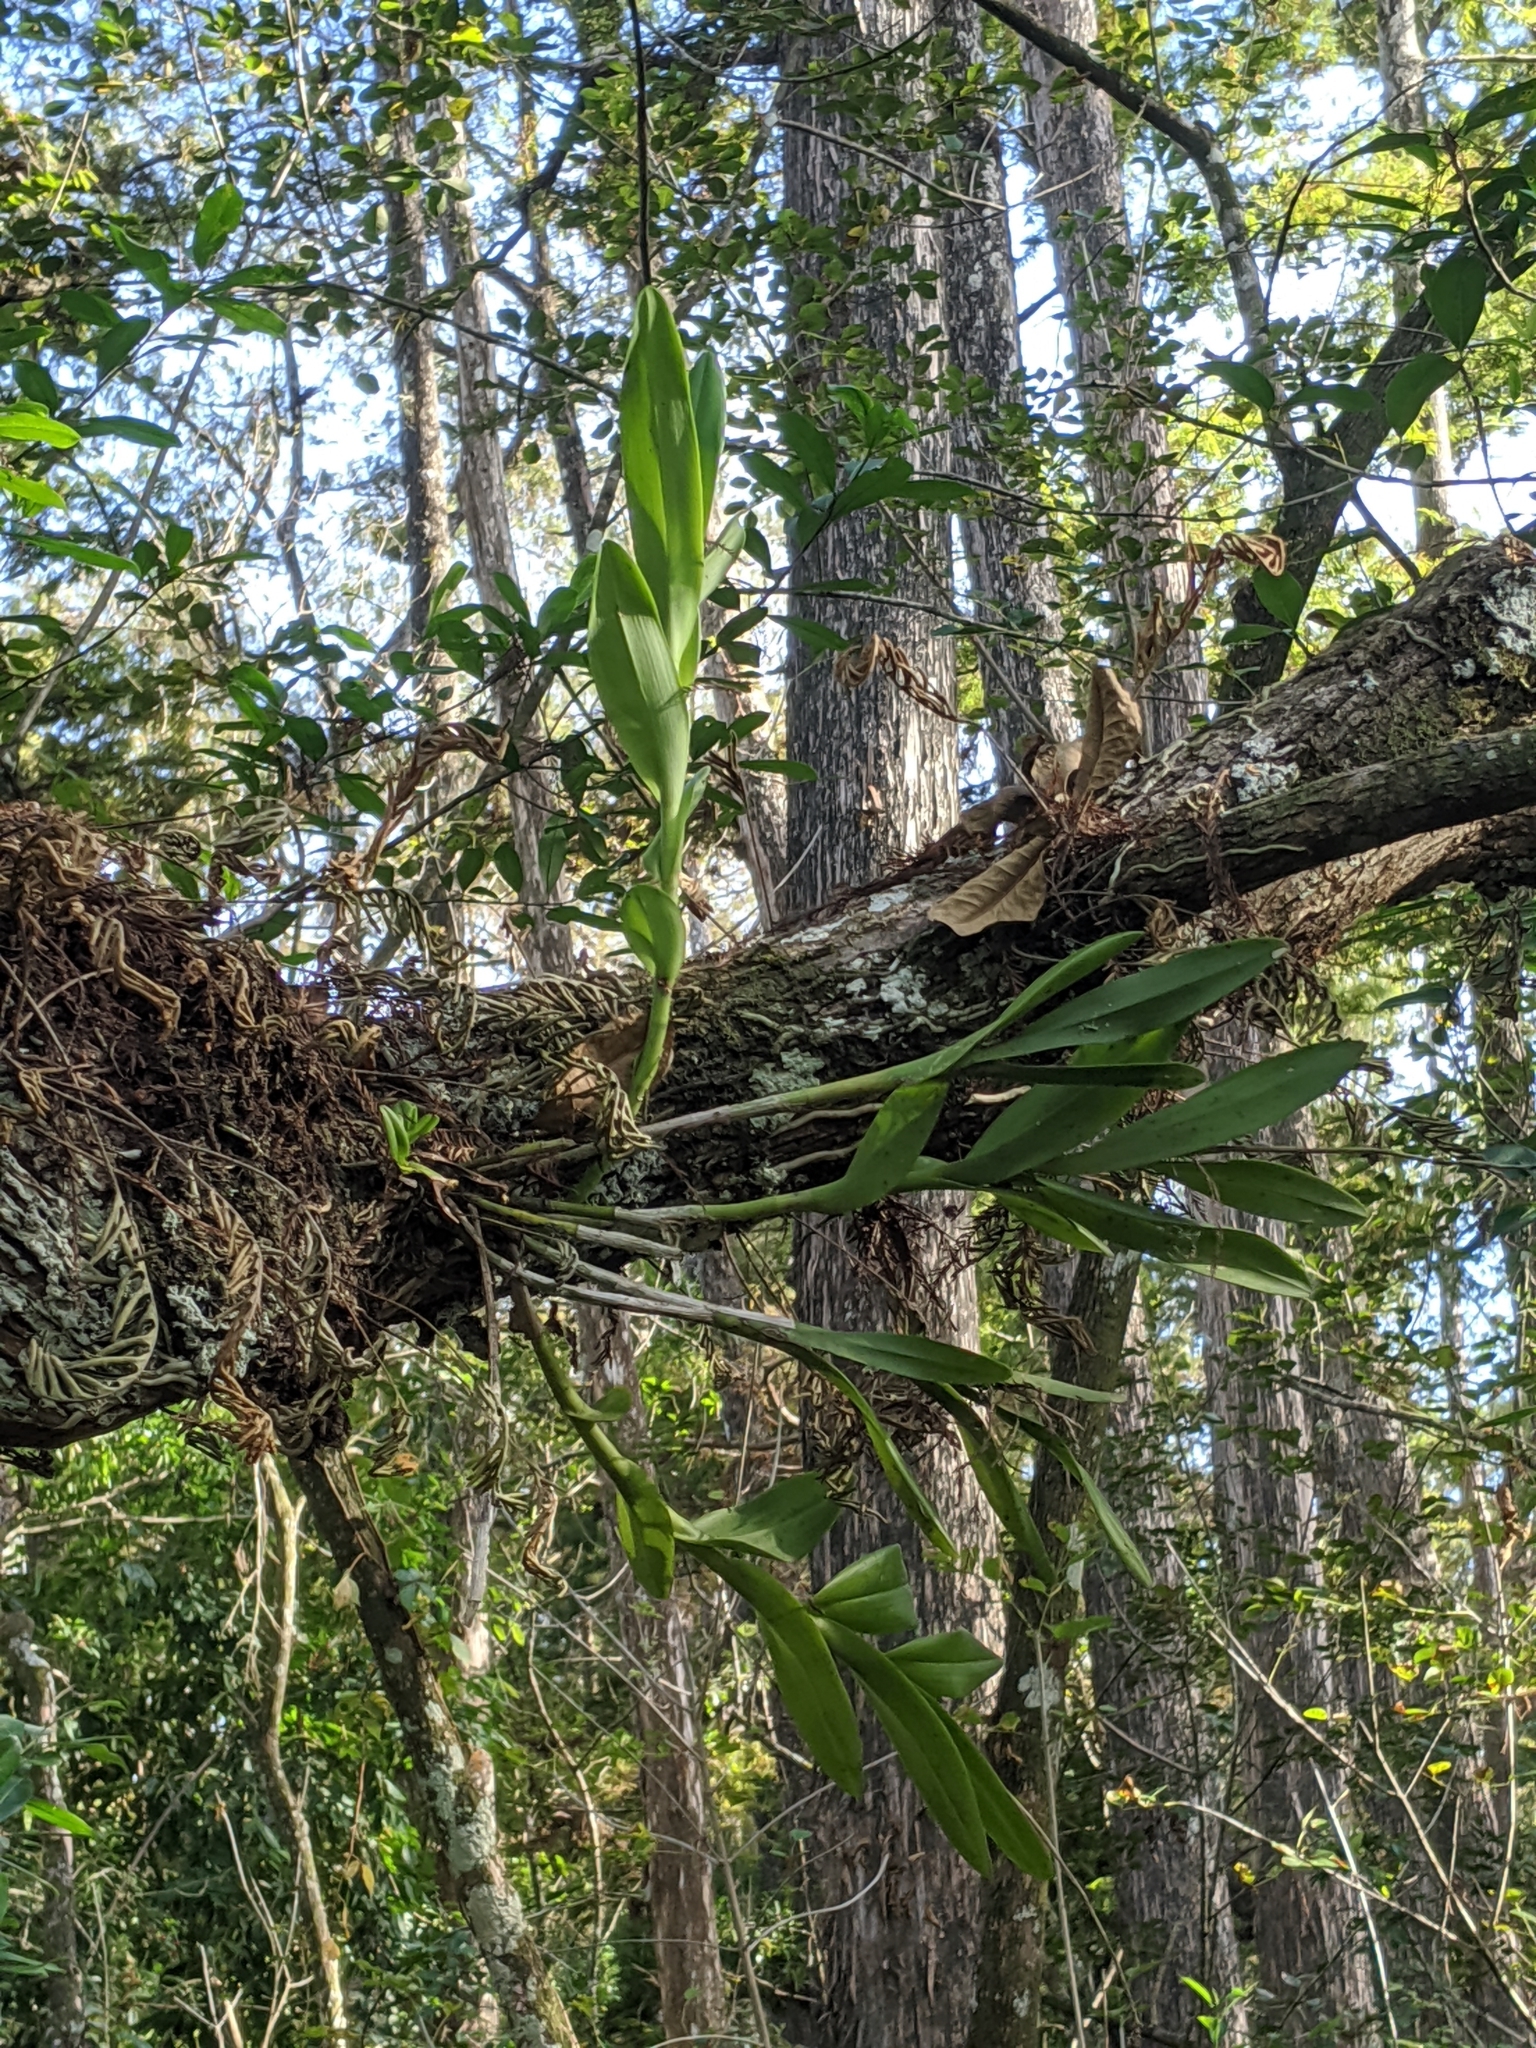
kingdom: Plantae
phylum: Tracheophyta
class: Liliopsida
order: Asparagales
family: Orchidaceae
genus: Epidendrum
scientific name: Epidendrum amphistomum
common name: Big-mouth star orchid
